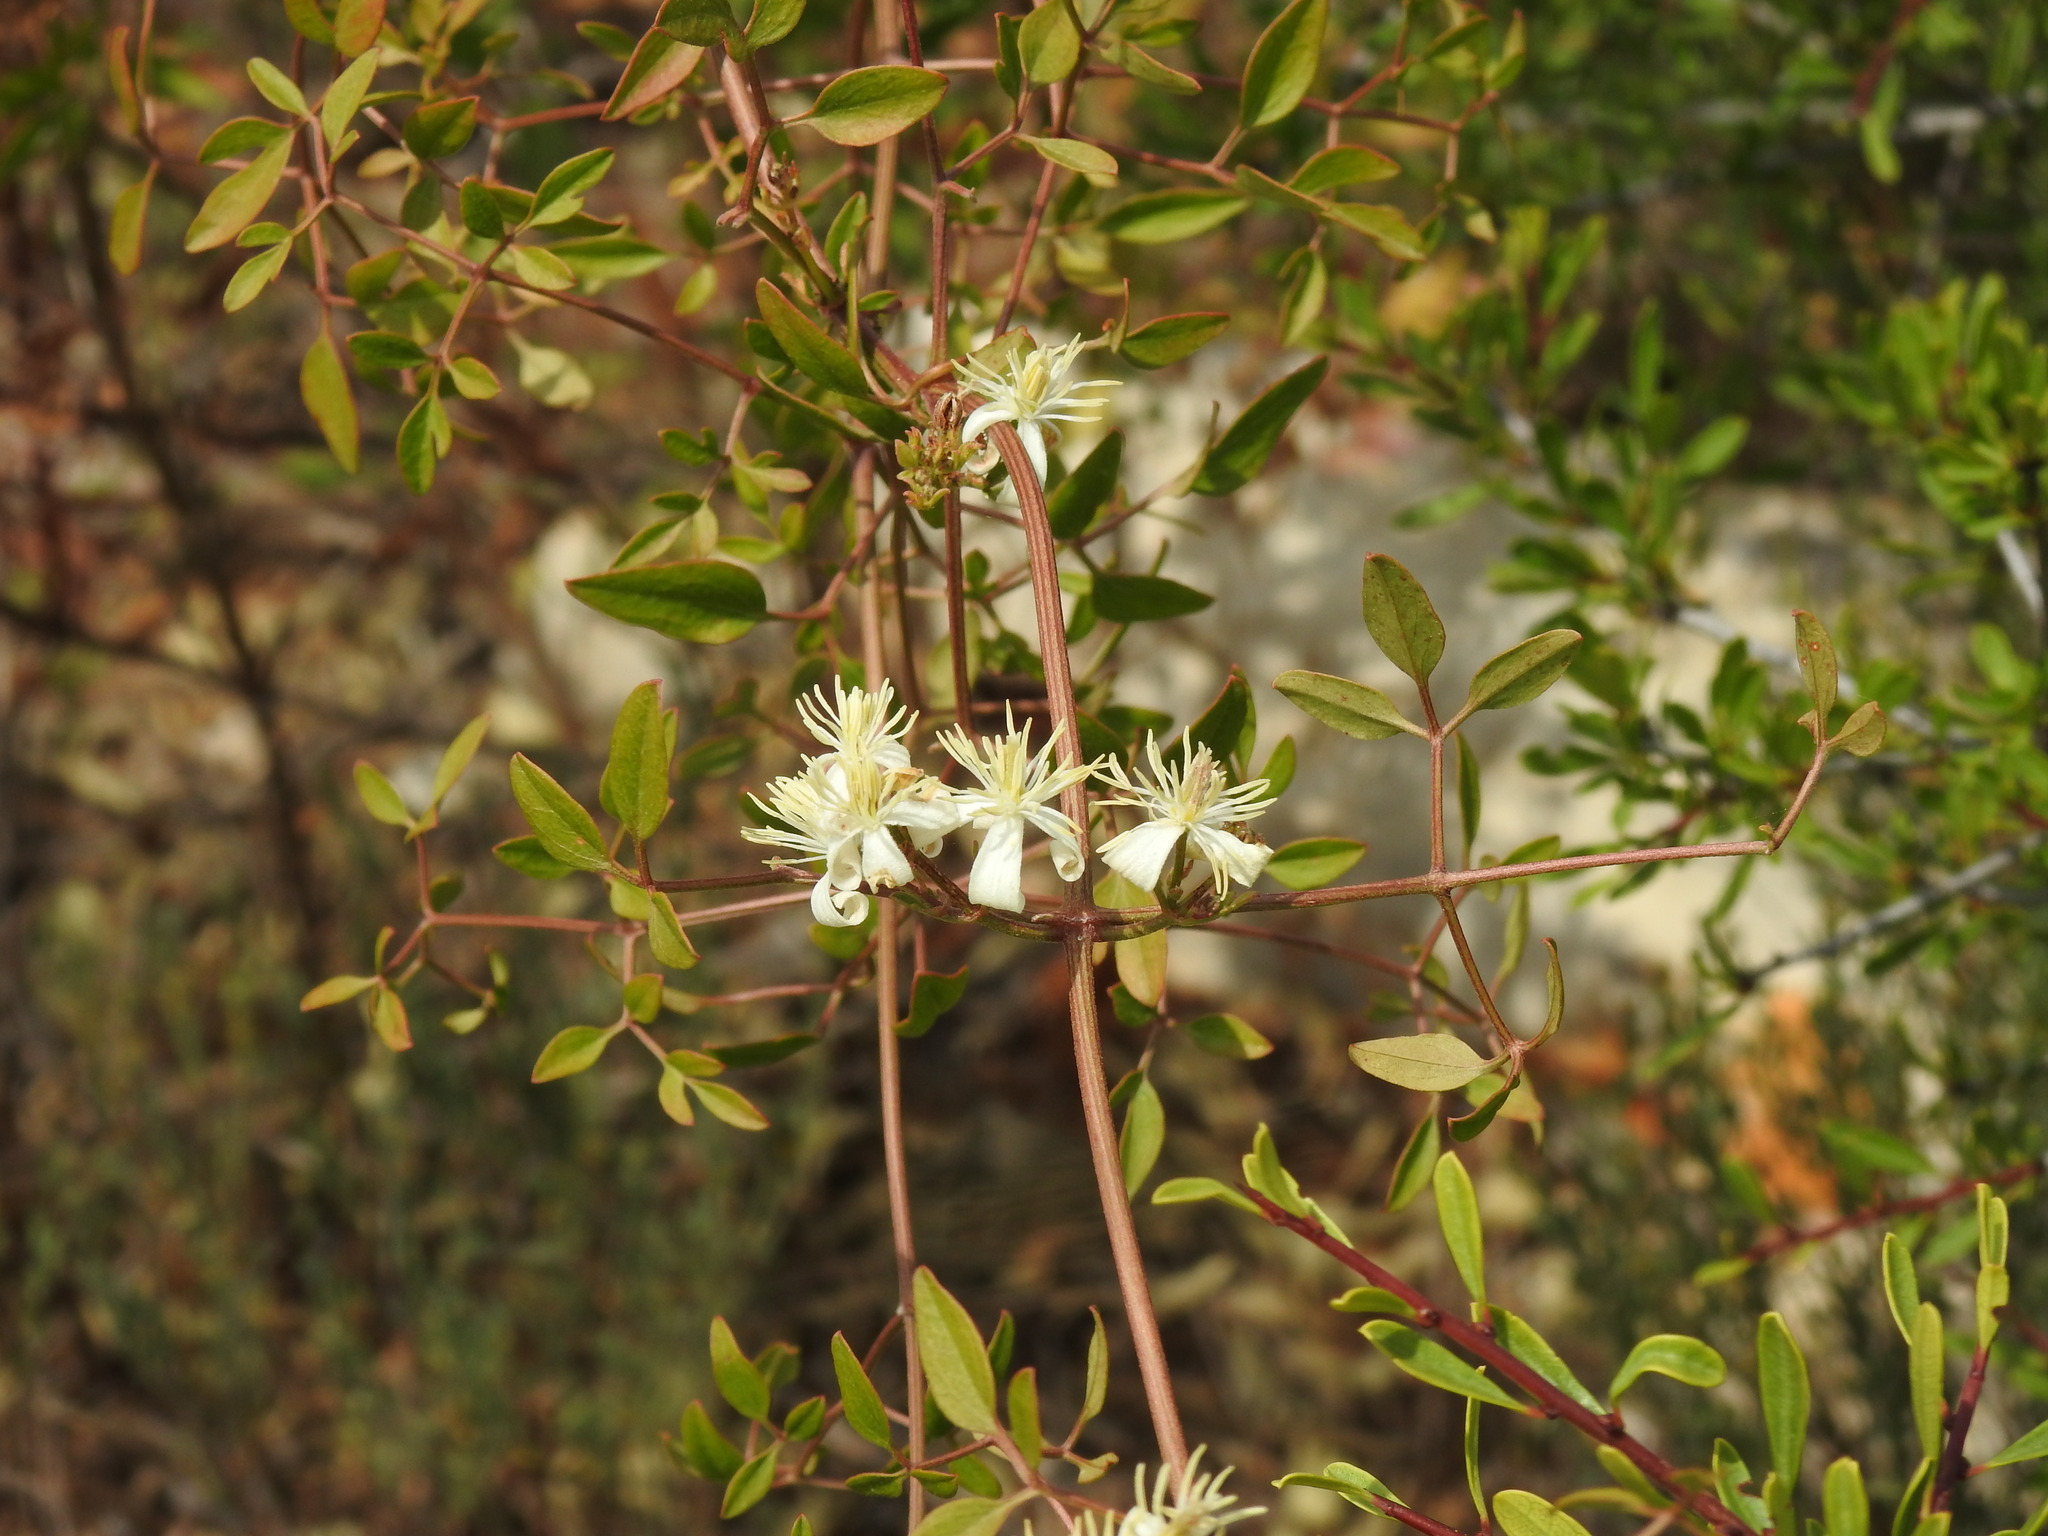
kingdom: Plantae
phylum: Tracheophyta
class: Magnoliopsida
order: Ranunculales
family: Ranunculaceae
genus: Clematis
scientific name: Clematis flammula
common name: Virgin's-bower
